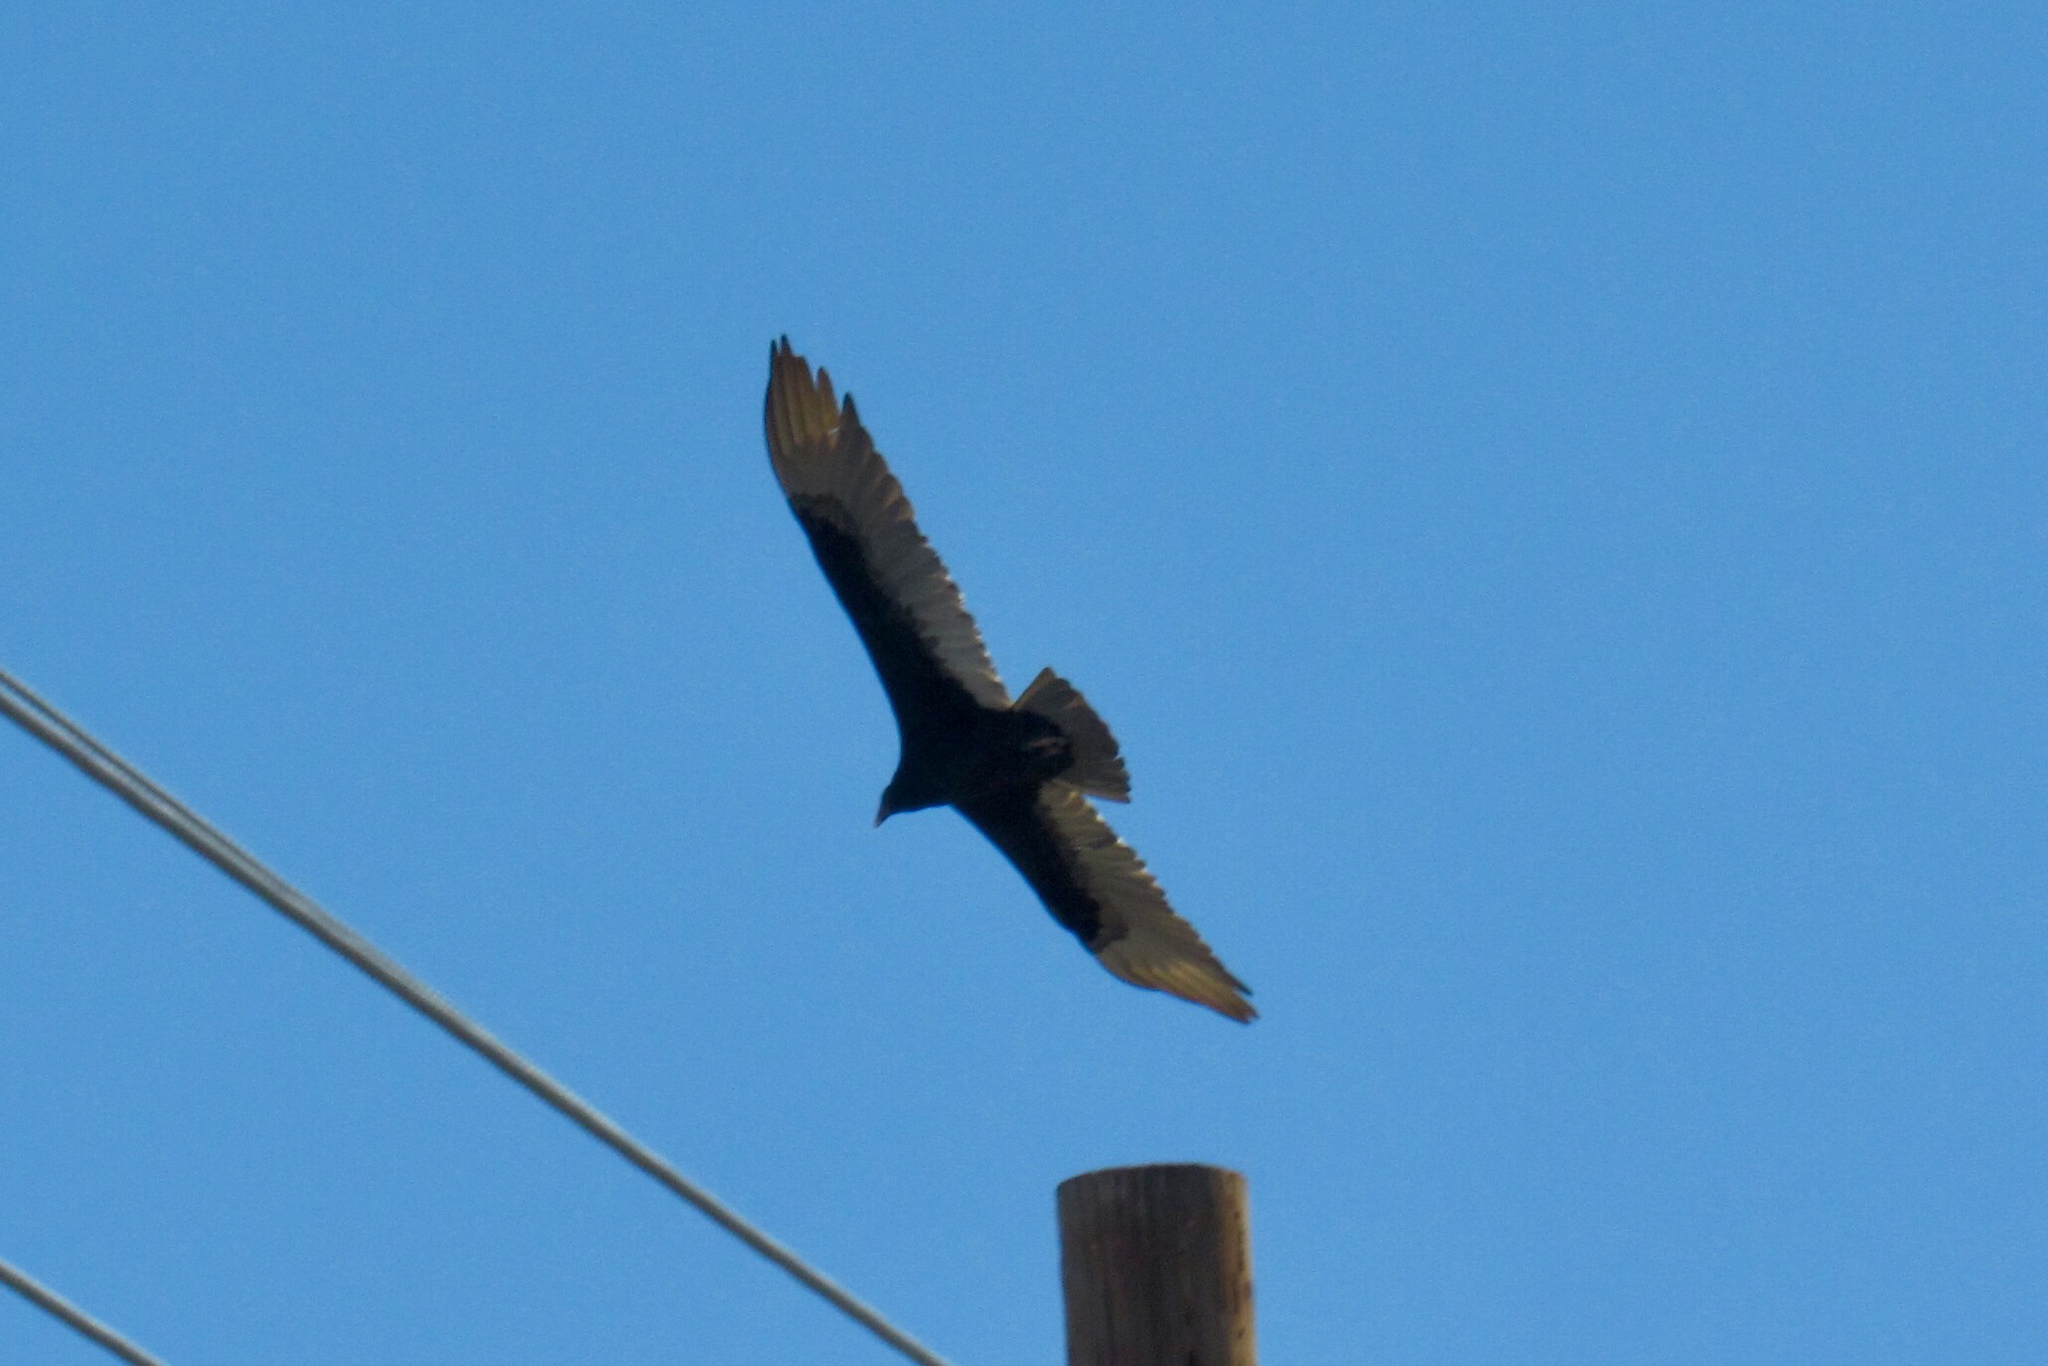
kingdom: Animalia
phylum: Chordata
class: Aves
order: Accipitriformes
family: Cathartidae
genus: Cathartes
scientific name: Cathartes aura
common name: Turkey vulture
